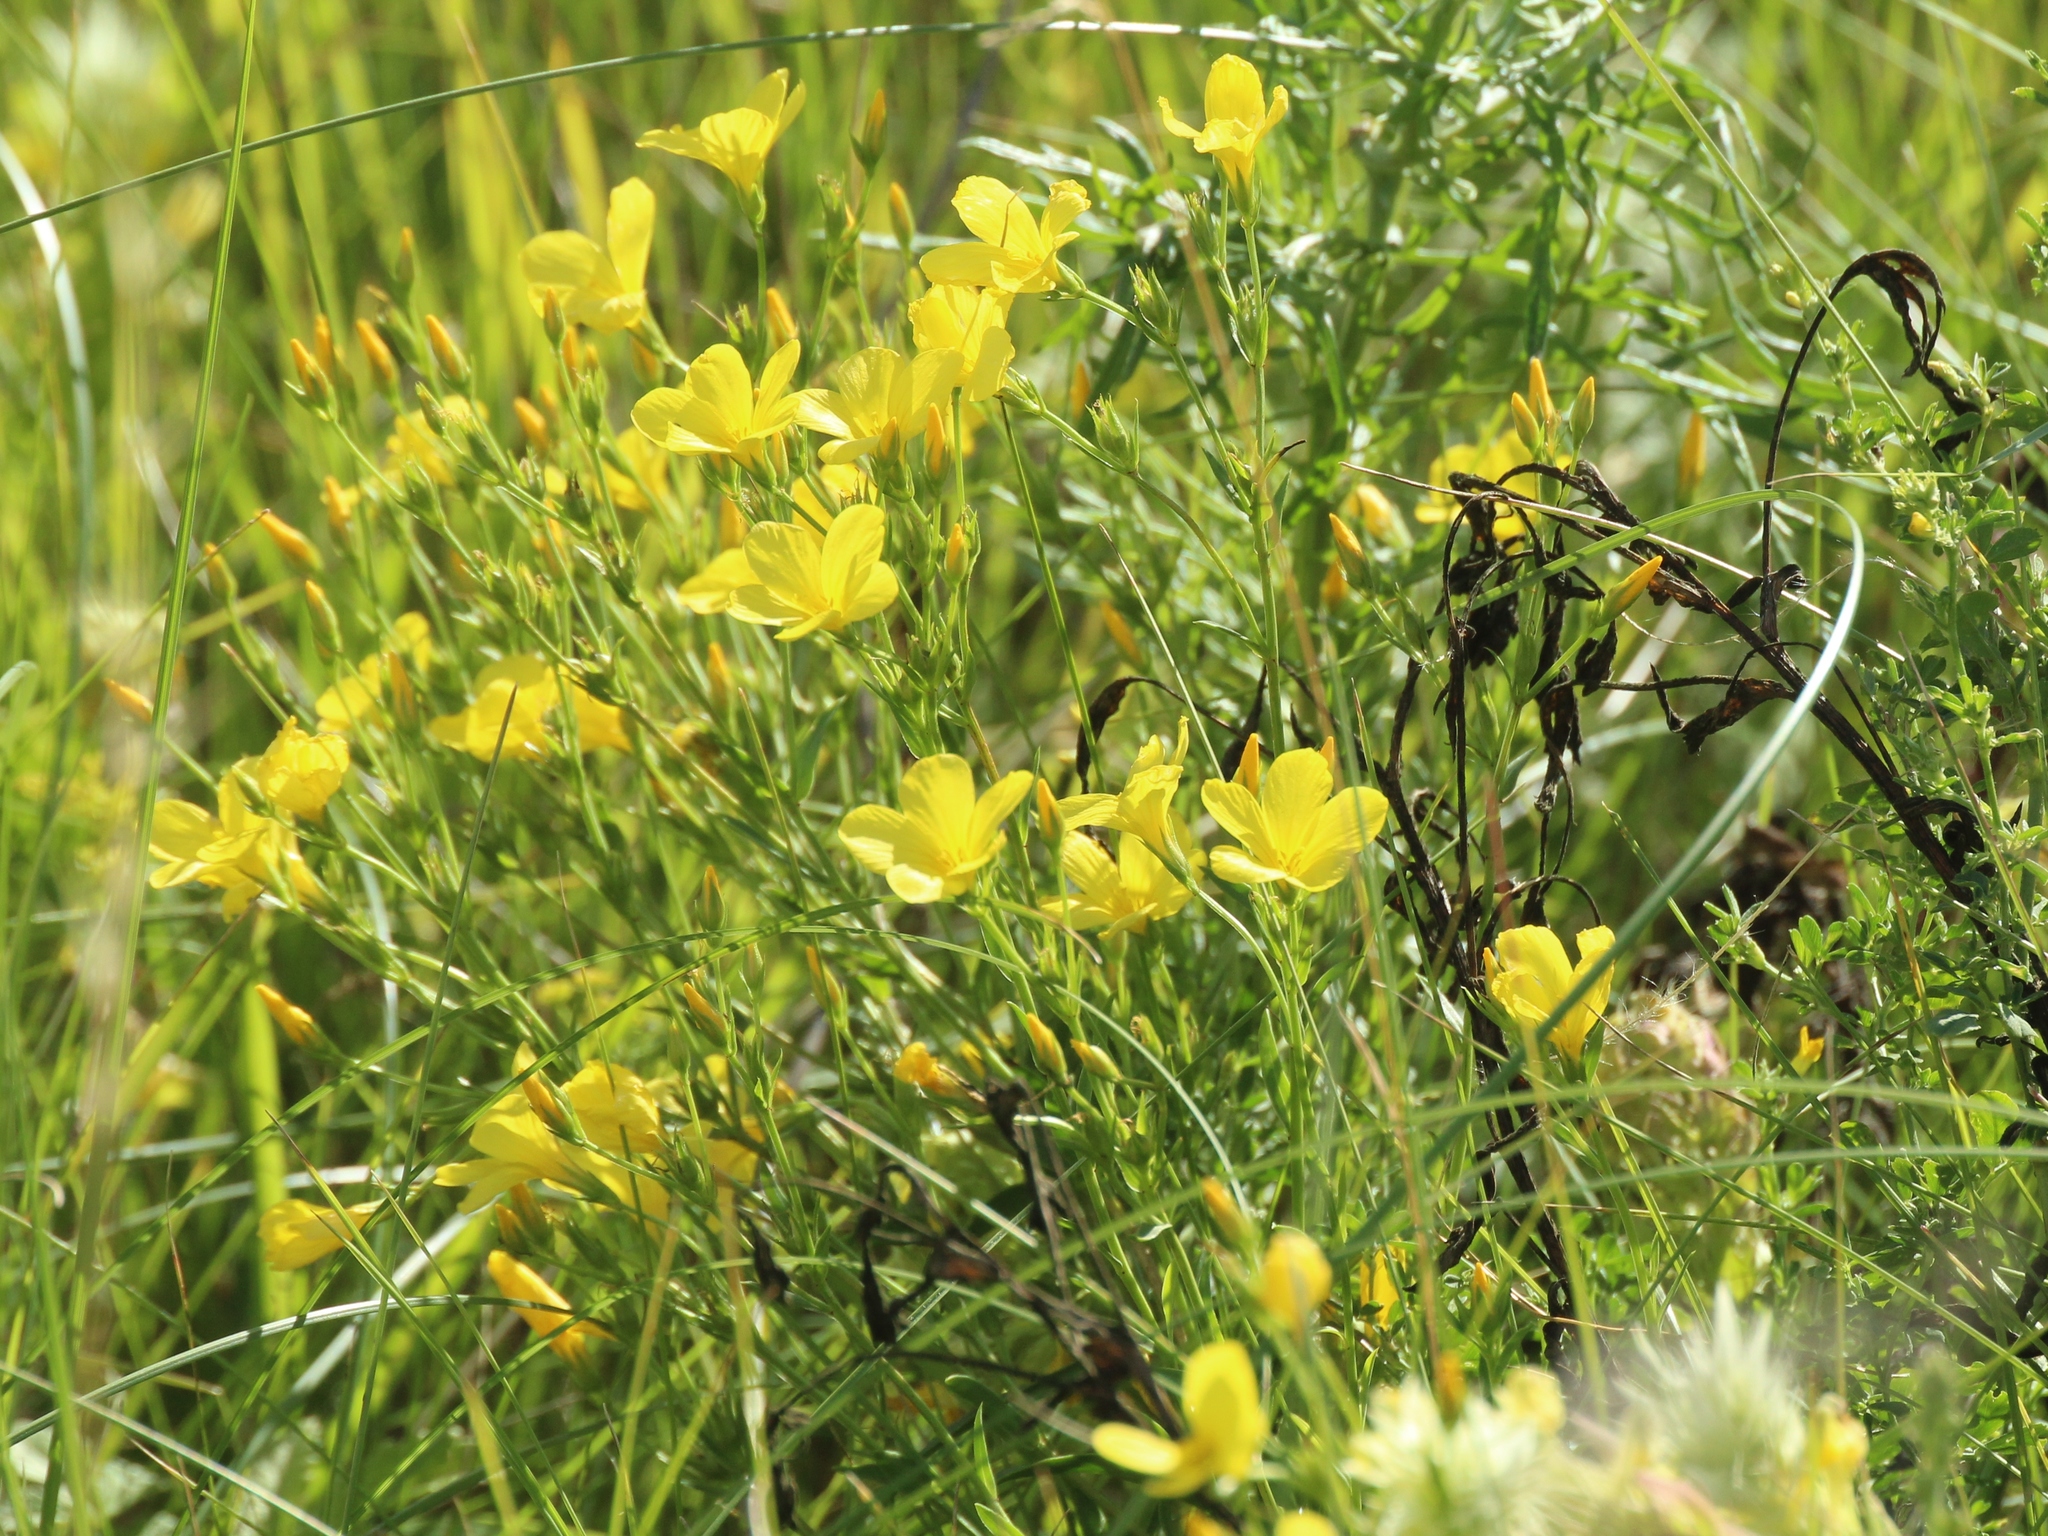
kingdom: Plantae
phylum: Tracheophyta
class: Magnoliopsida
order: Malpighiales
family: Linaceae
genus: Linum
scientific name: Linum flavum
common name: Yellow flax
